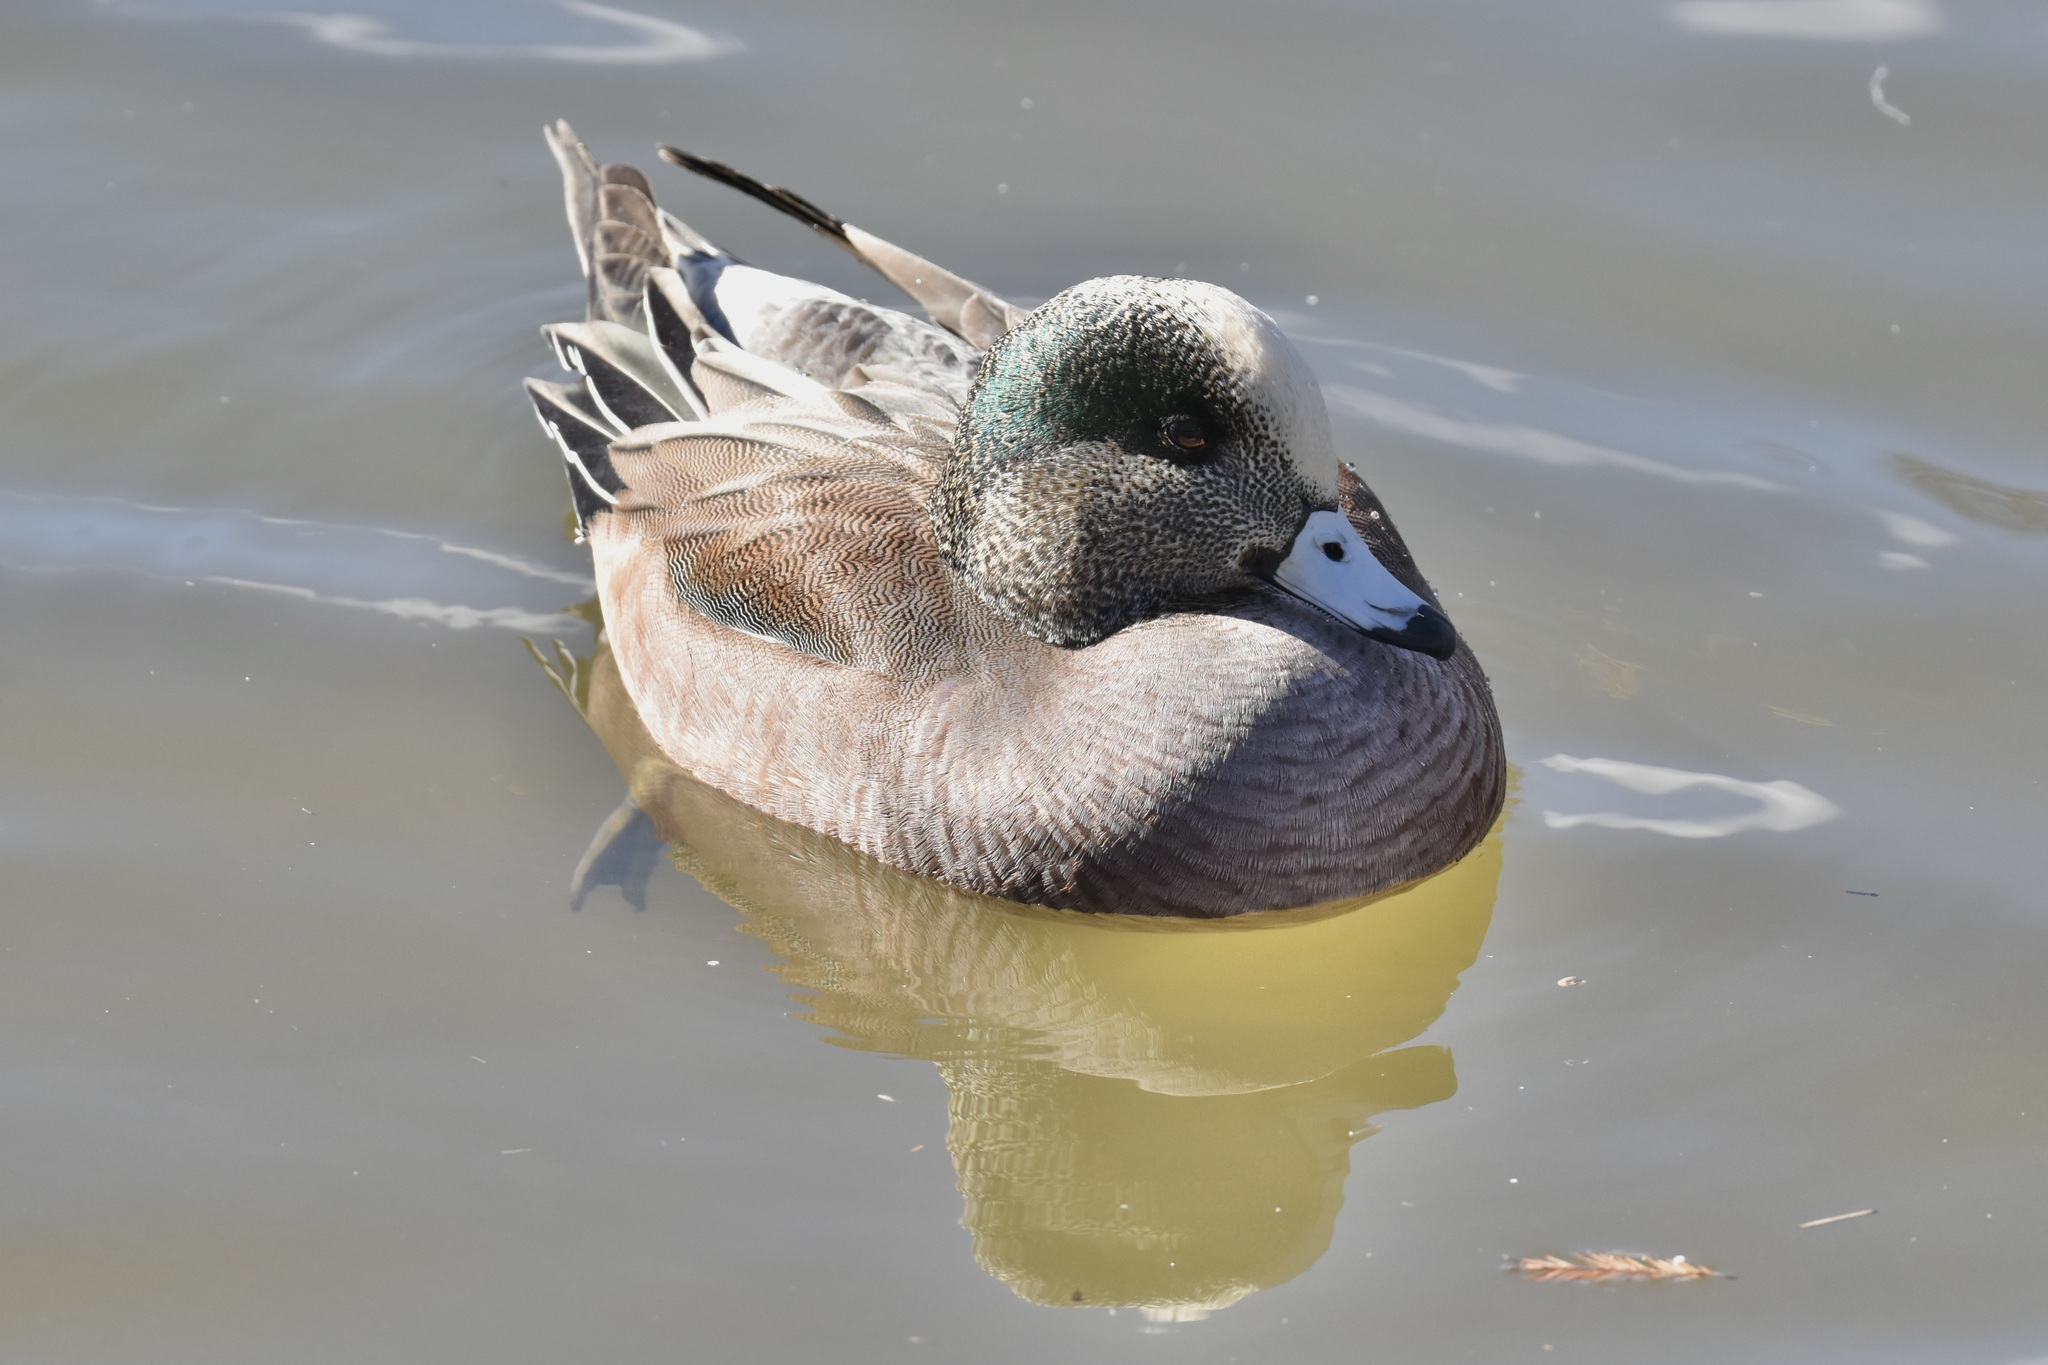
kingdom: Animalia
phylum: Chordata
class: Aves
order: Anseriformes
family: Anatidae
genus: Mareca
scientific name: Mareca americana
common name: American wigeon
